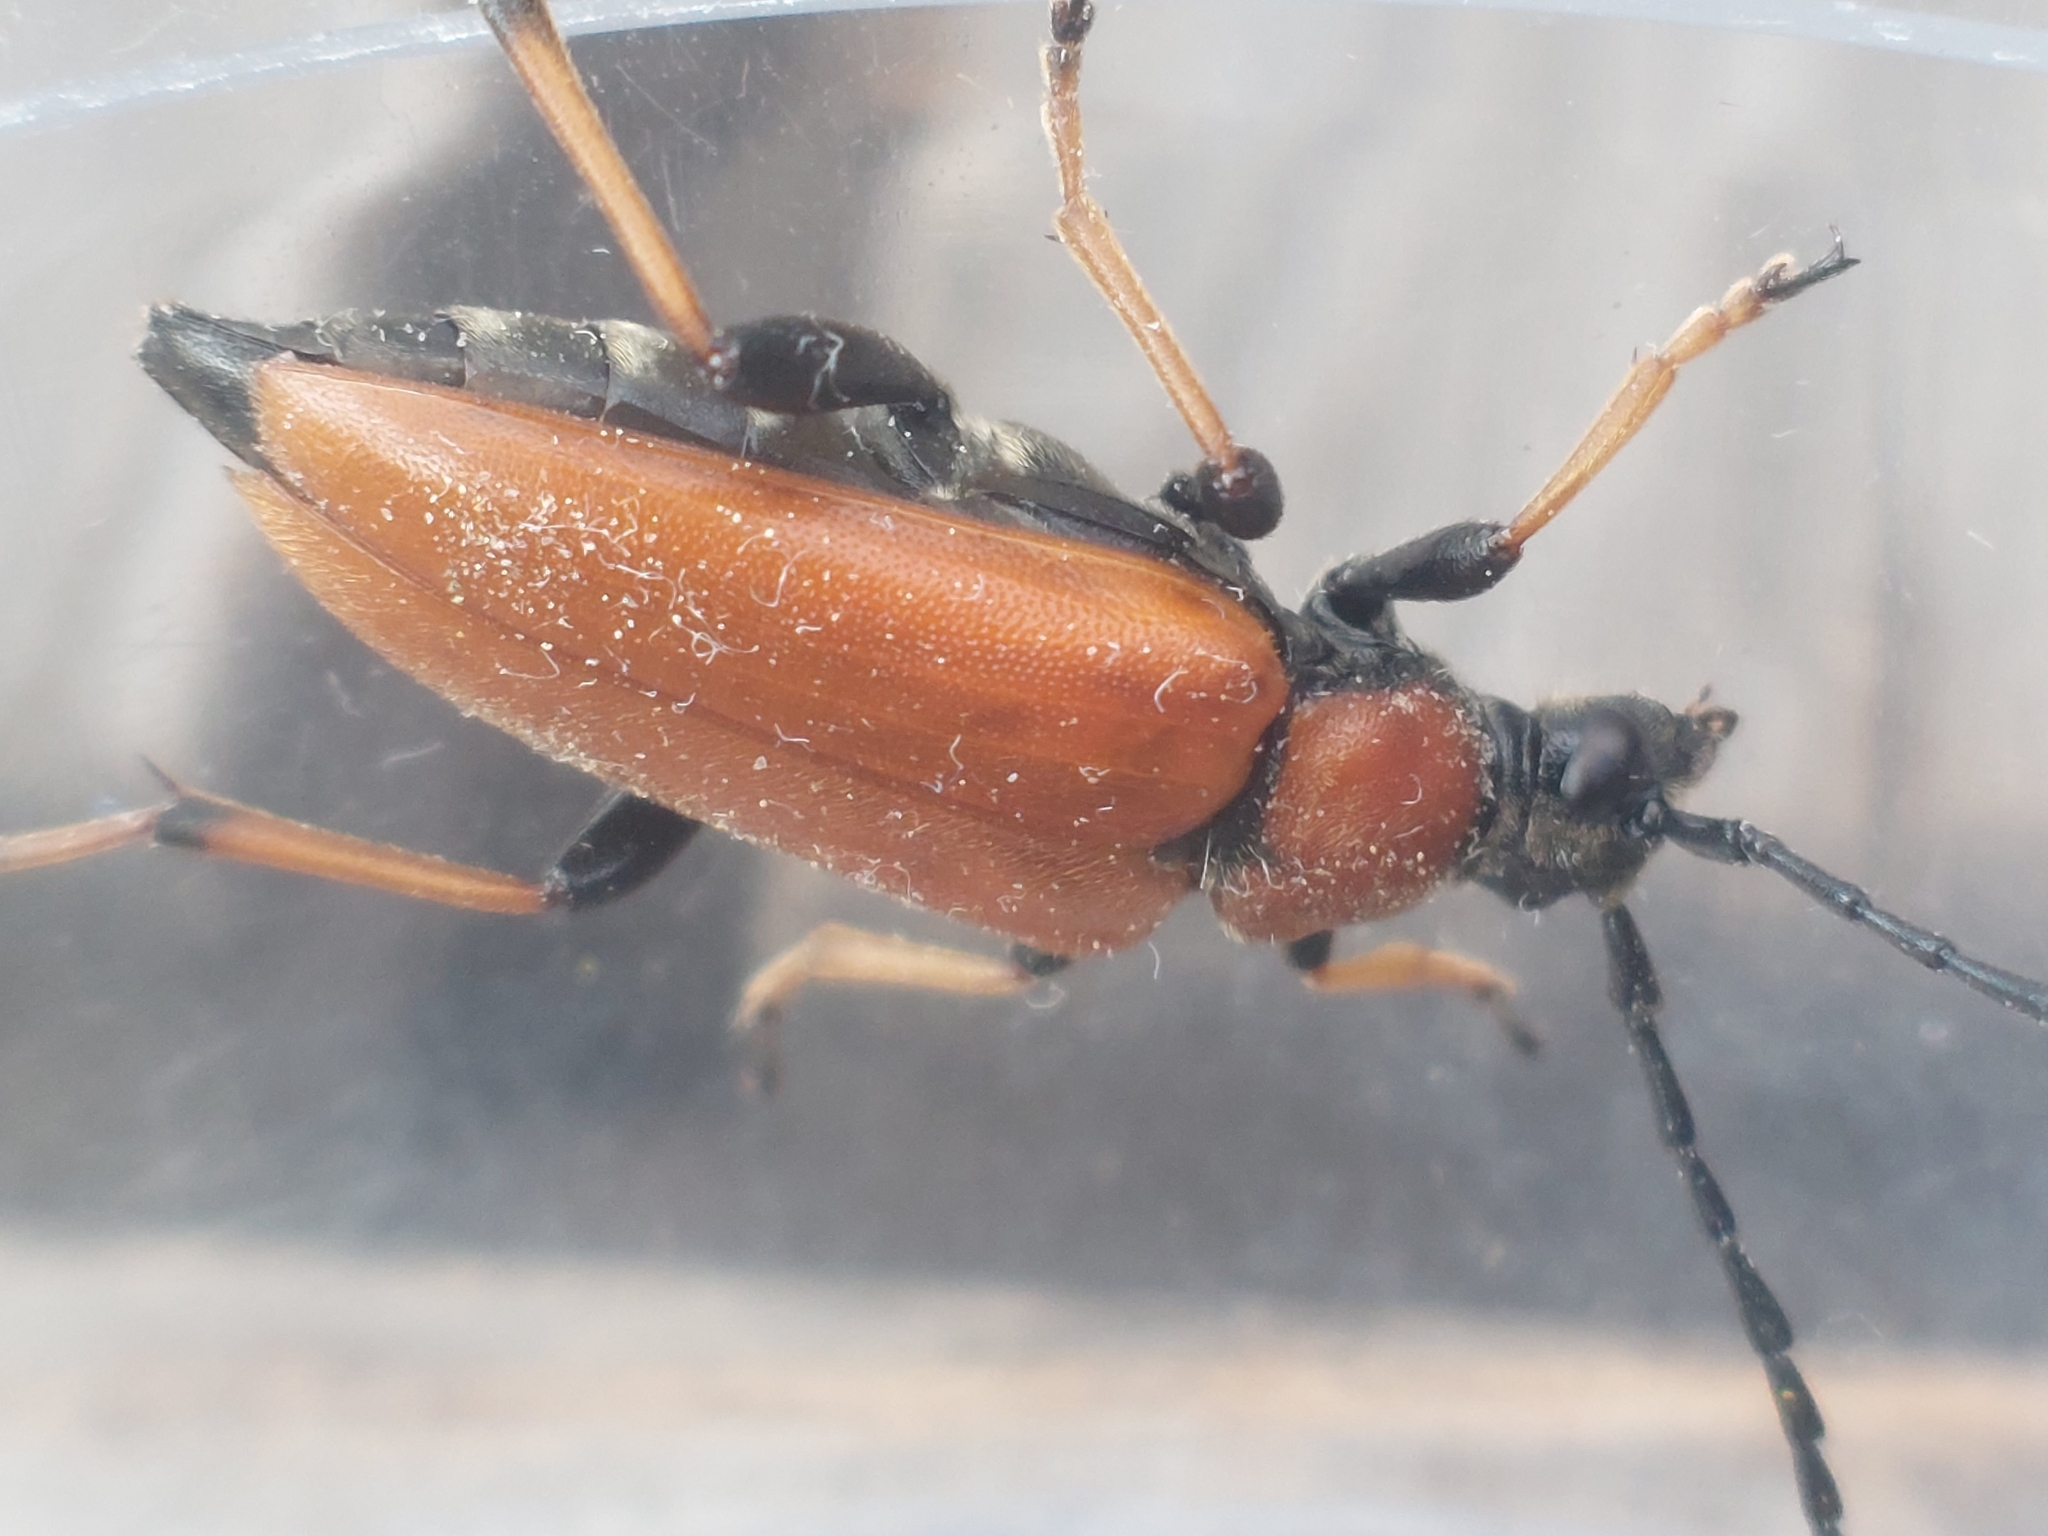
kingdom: Animalia
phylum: Arthropoda
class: Insecta
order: Coleoptera
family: Cerambycidae
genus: Stictoleptura
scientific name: Stictoleptura rubra
